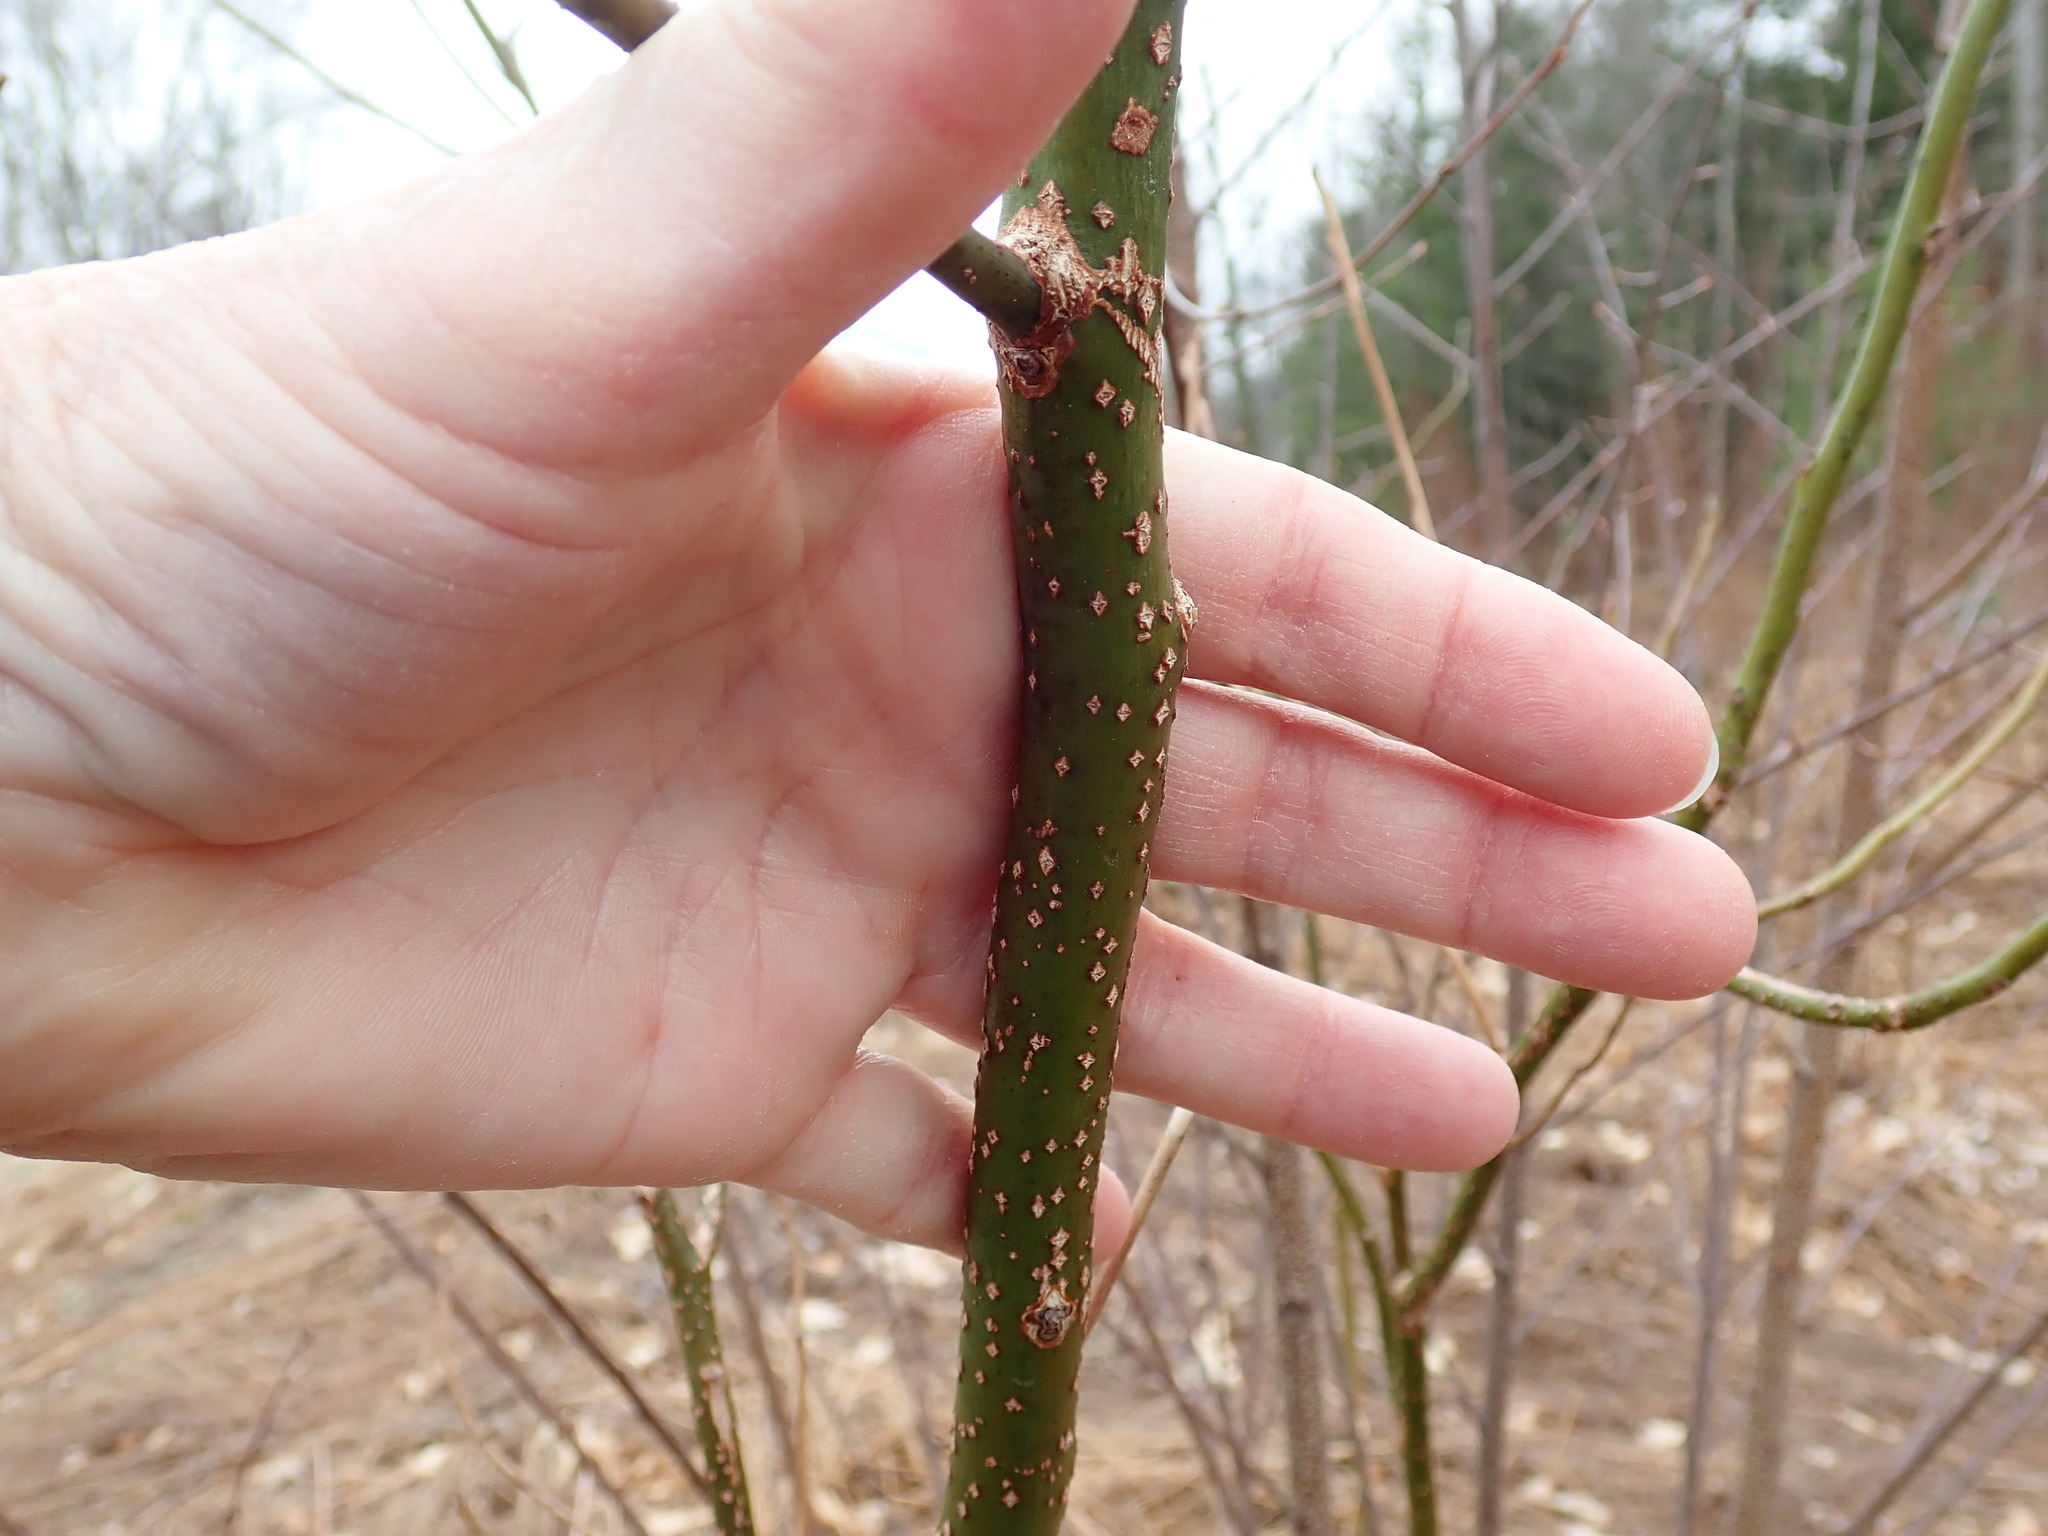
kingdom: Plantae
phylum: Tracheophyta
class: Magnoliopsida
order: Laurales
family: Lauraceae
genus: Sassafras
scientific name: Sassafras albidum
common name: Sassafras
